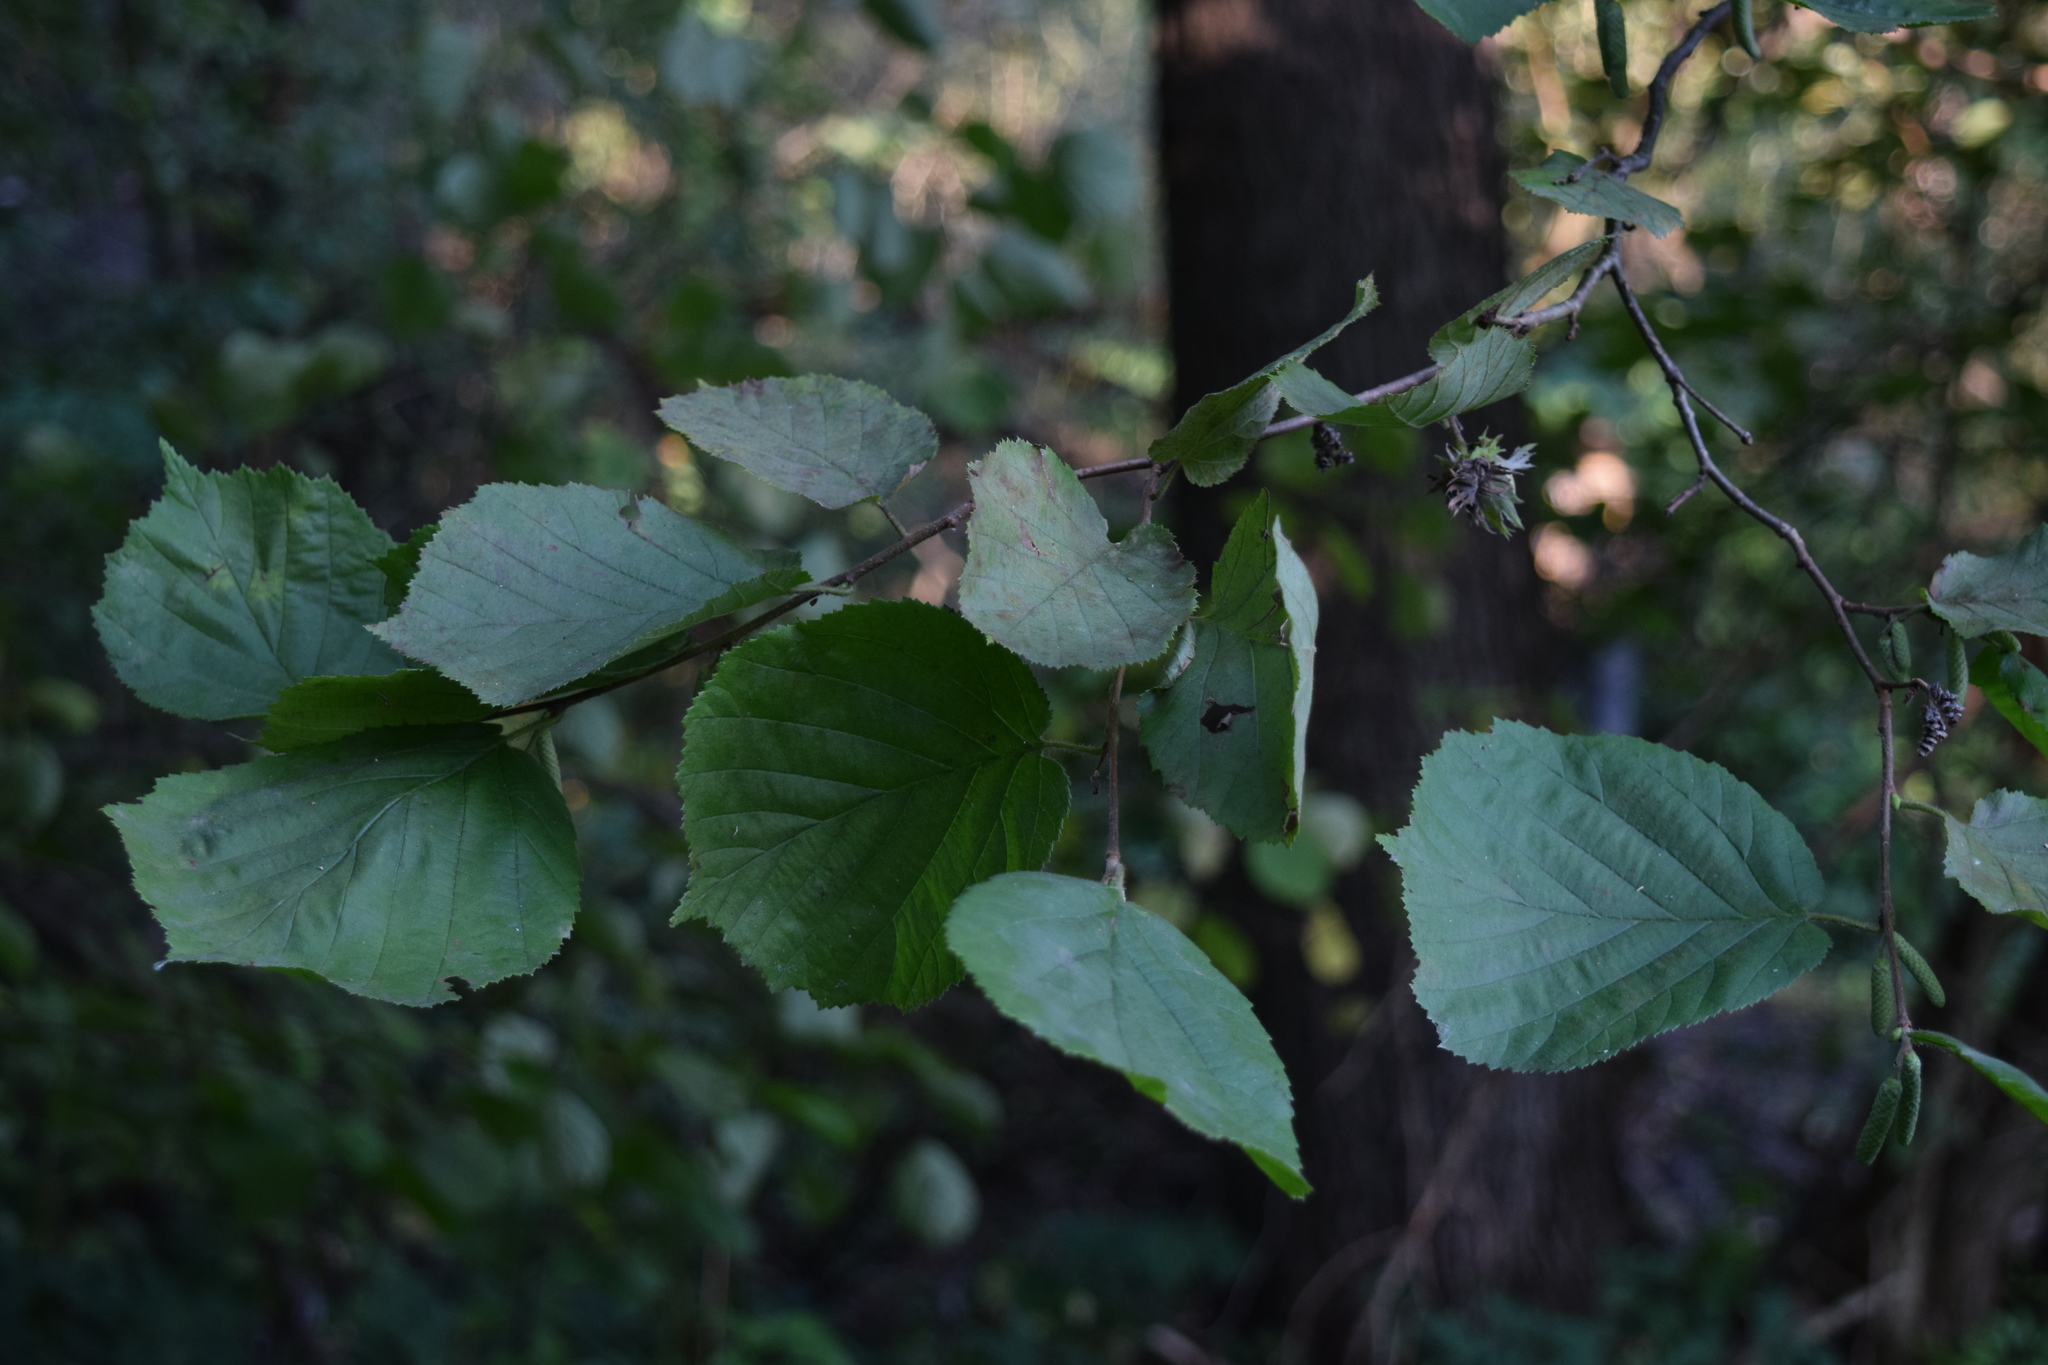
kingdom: Plantae
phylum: Tracheophyta
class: Magnoliopsida
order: Fagales
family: Betulaceae
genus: Corylus
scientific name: Corylus avellana
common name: European hazel
